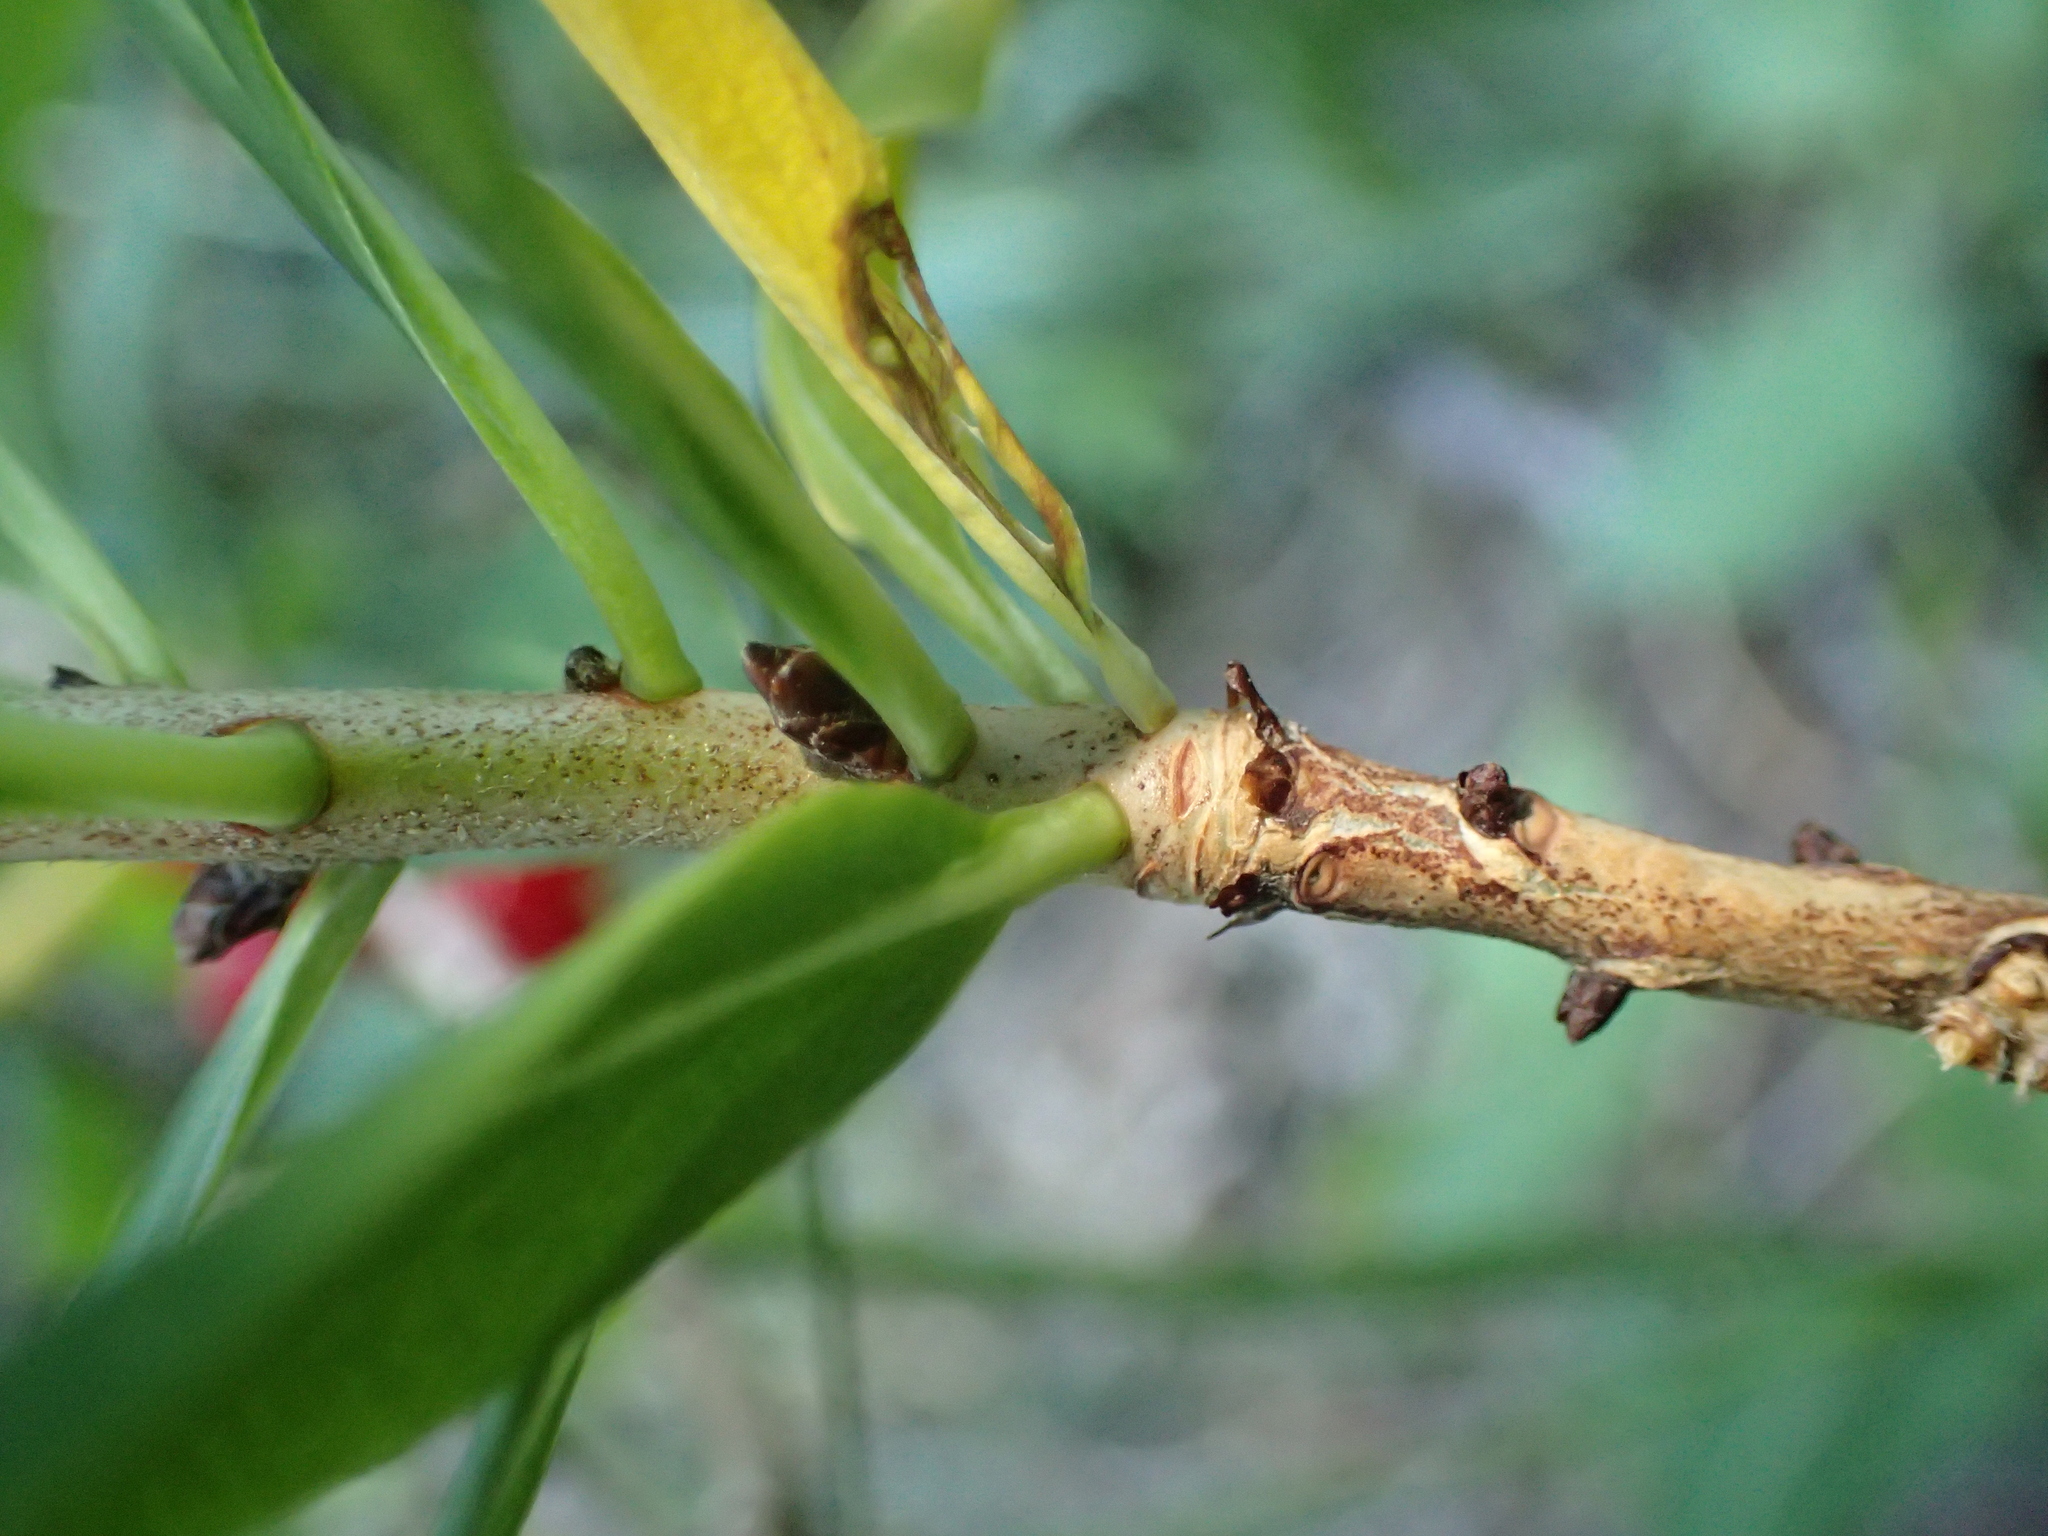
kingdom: Plantae
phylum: Tracheophyta
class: Magnoliopsida
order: Malvales
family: Thymelaeaceae
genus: Daphne
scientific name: Daphne mezereum
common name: Mezereon
